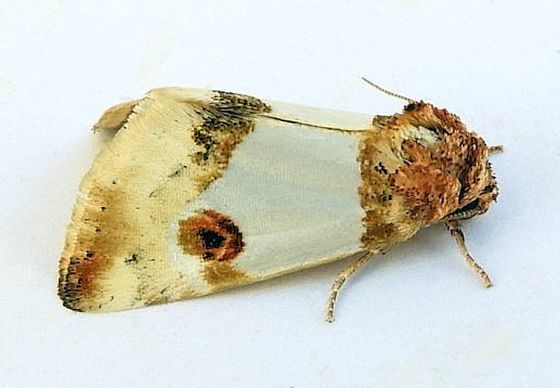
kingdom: Animalia
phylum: Arthropoda
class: Insecta
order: Lepidoptera
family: Noctuidae
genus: Schinia
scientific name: Schinia oculata
